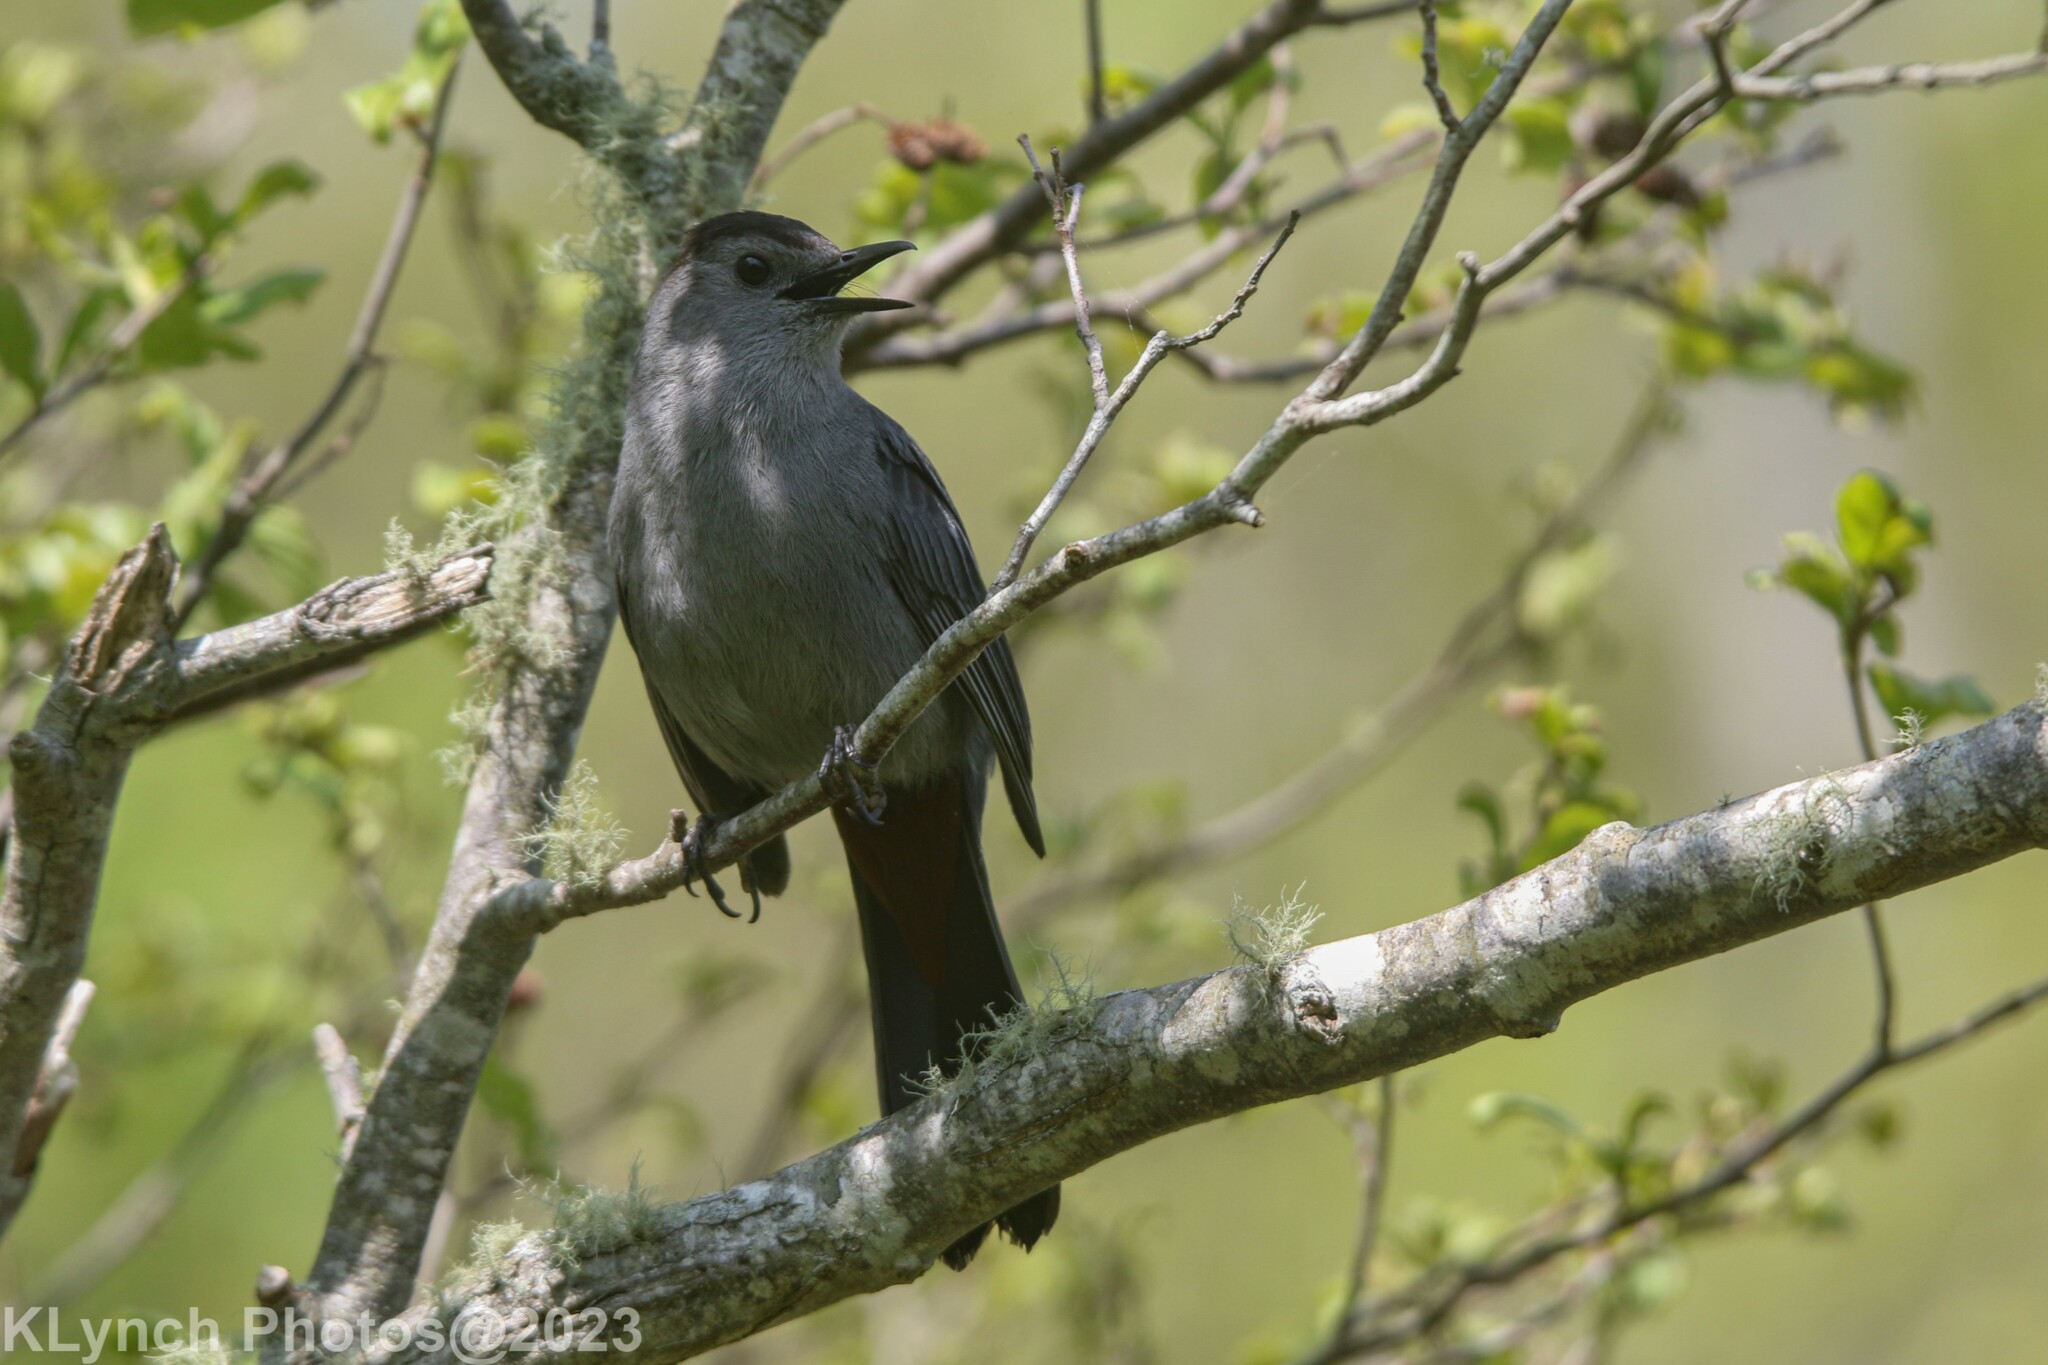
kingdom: Animalia
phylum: Chordata
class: Aves
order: Passeriformes
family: Mimidae
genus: Dumetella
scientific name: Dumetella carolinensis
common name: Gray catbird
